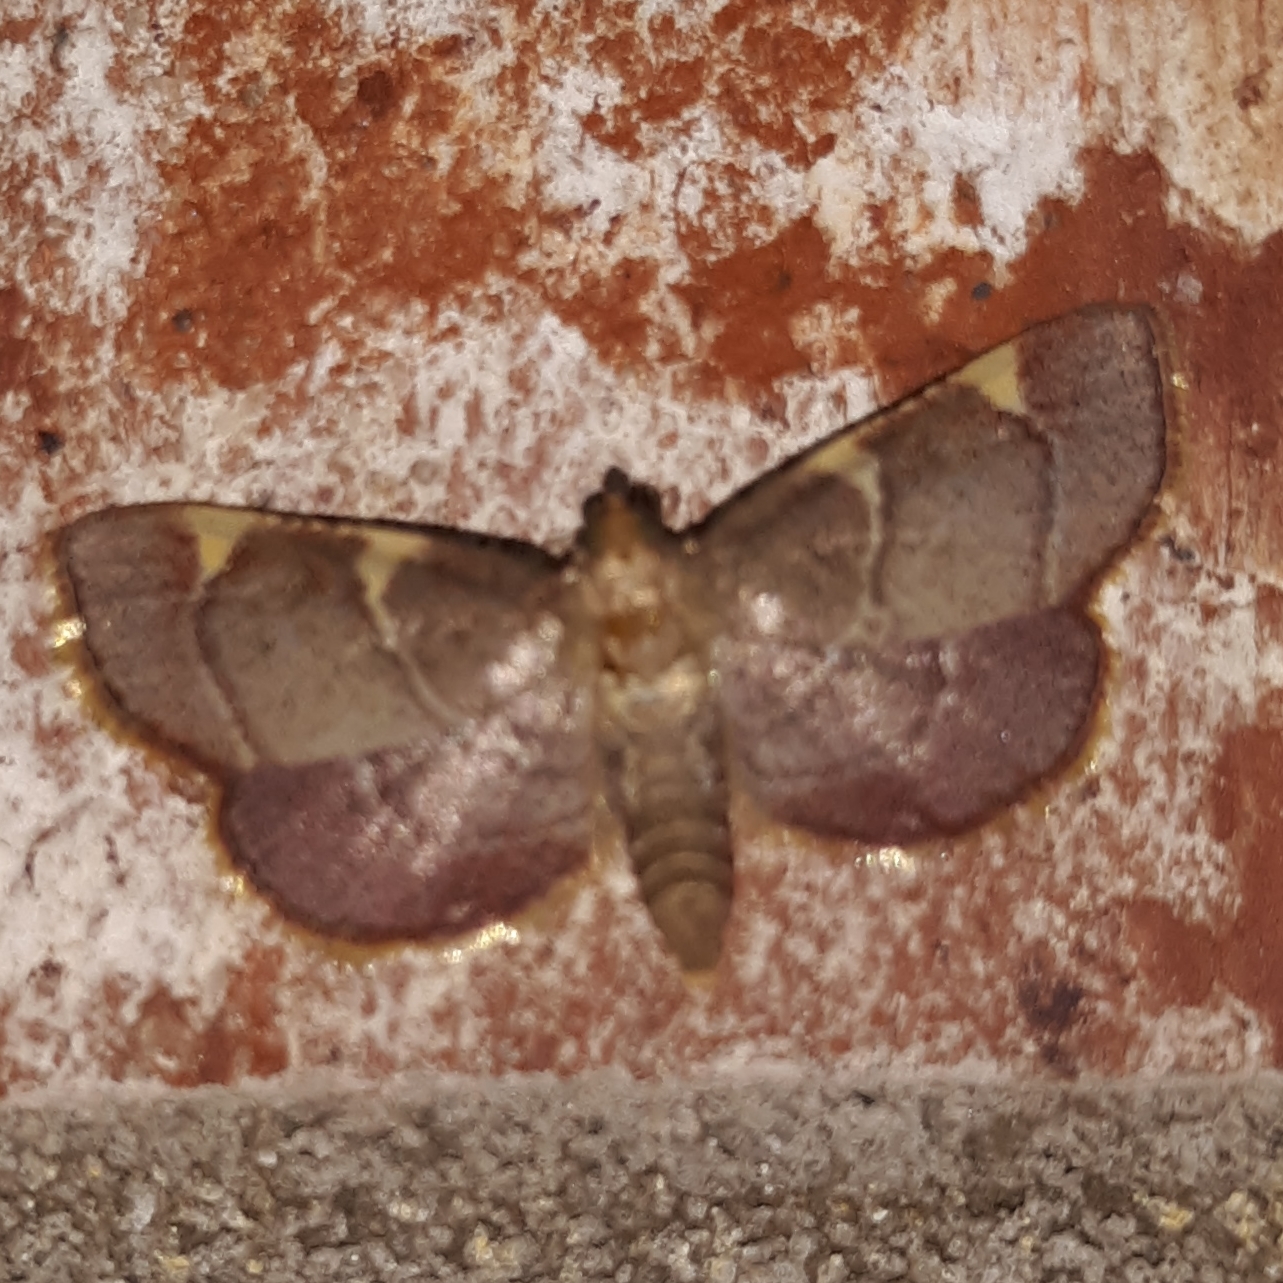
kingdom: Animalia
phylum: Arthropoda
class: Insecta
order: Lepidoptera
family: Pyralidae
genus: Hypsopygia
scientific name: Hypsopygia olinalis
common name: Yellow-fringed dolichomia moth
